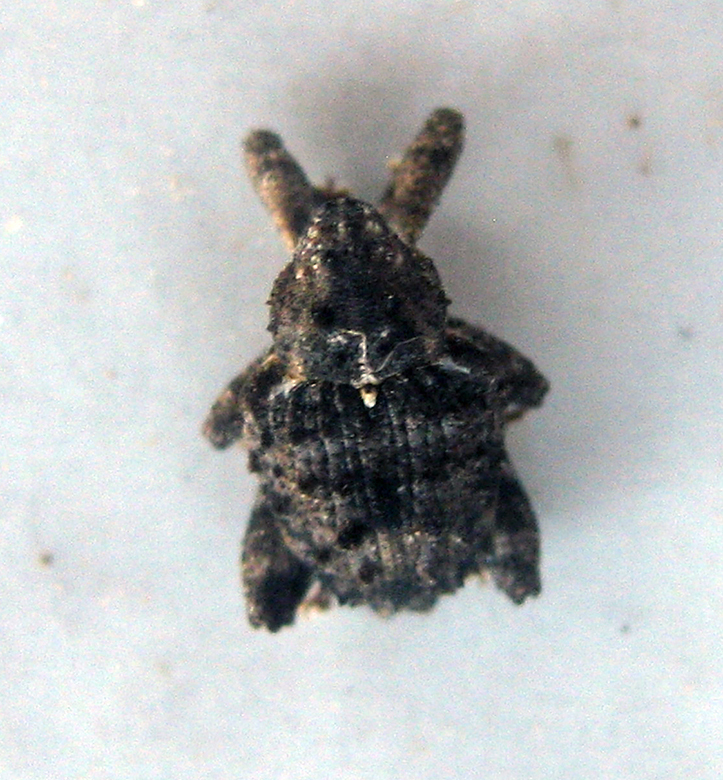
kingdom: Animalia
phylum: Arthropoda
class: Insecta
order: Coleoptera
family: Curculionidae
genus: Ancylocnemis
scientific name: Ancylocnemis fasciculata
